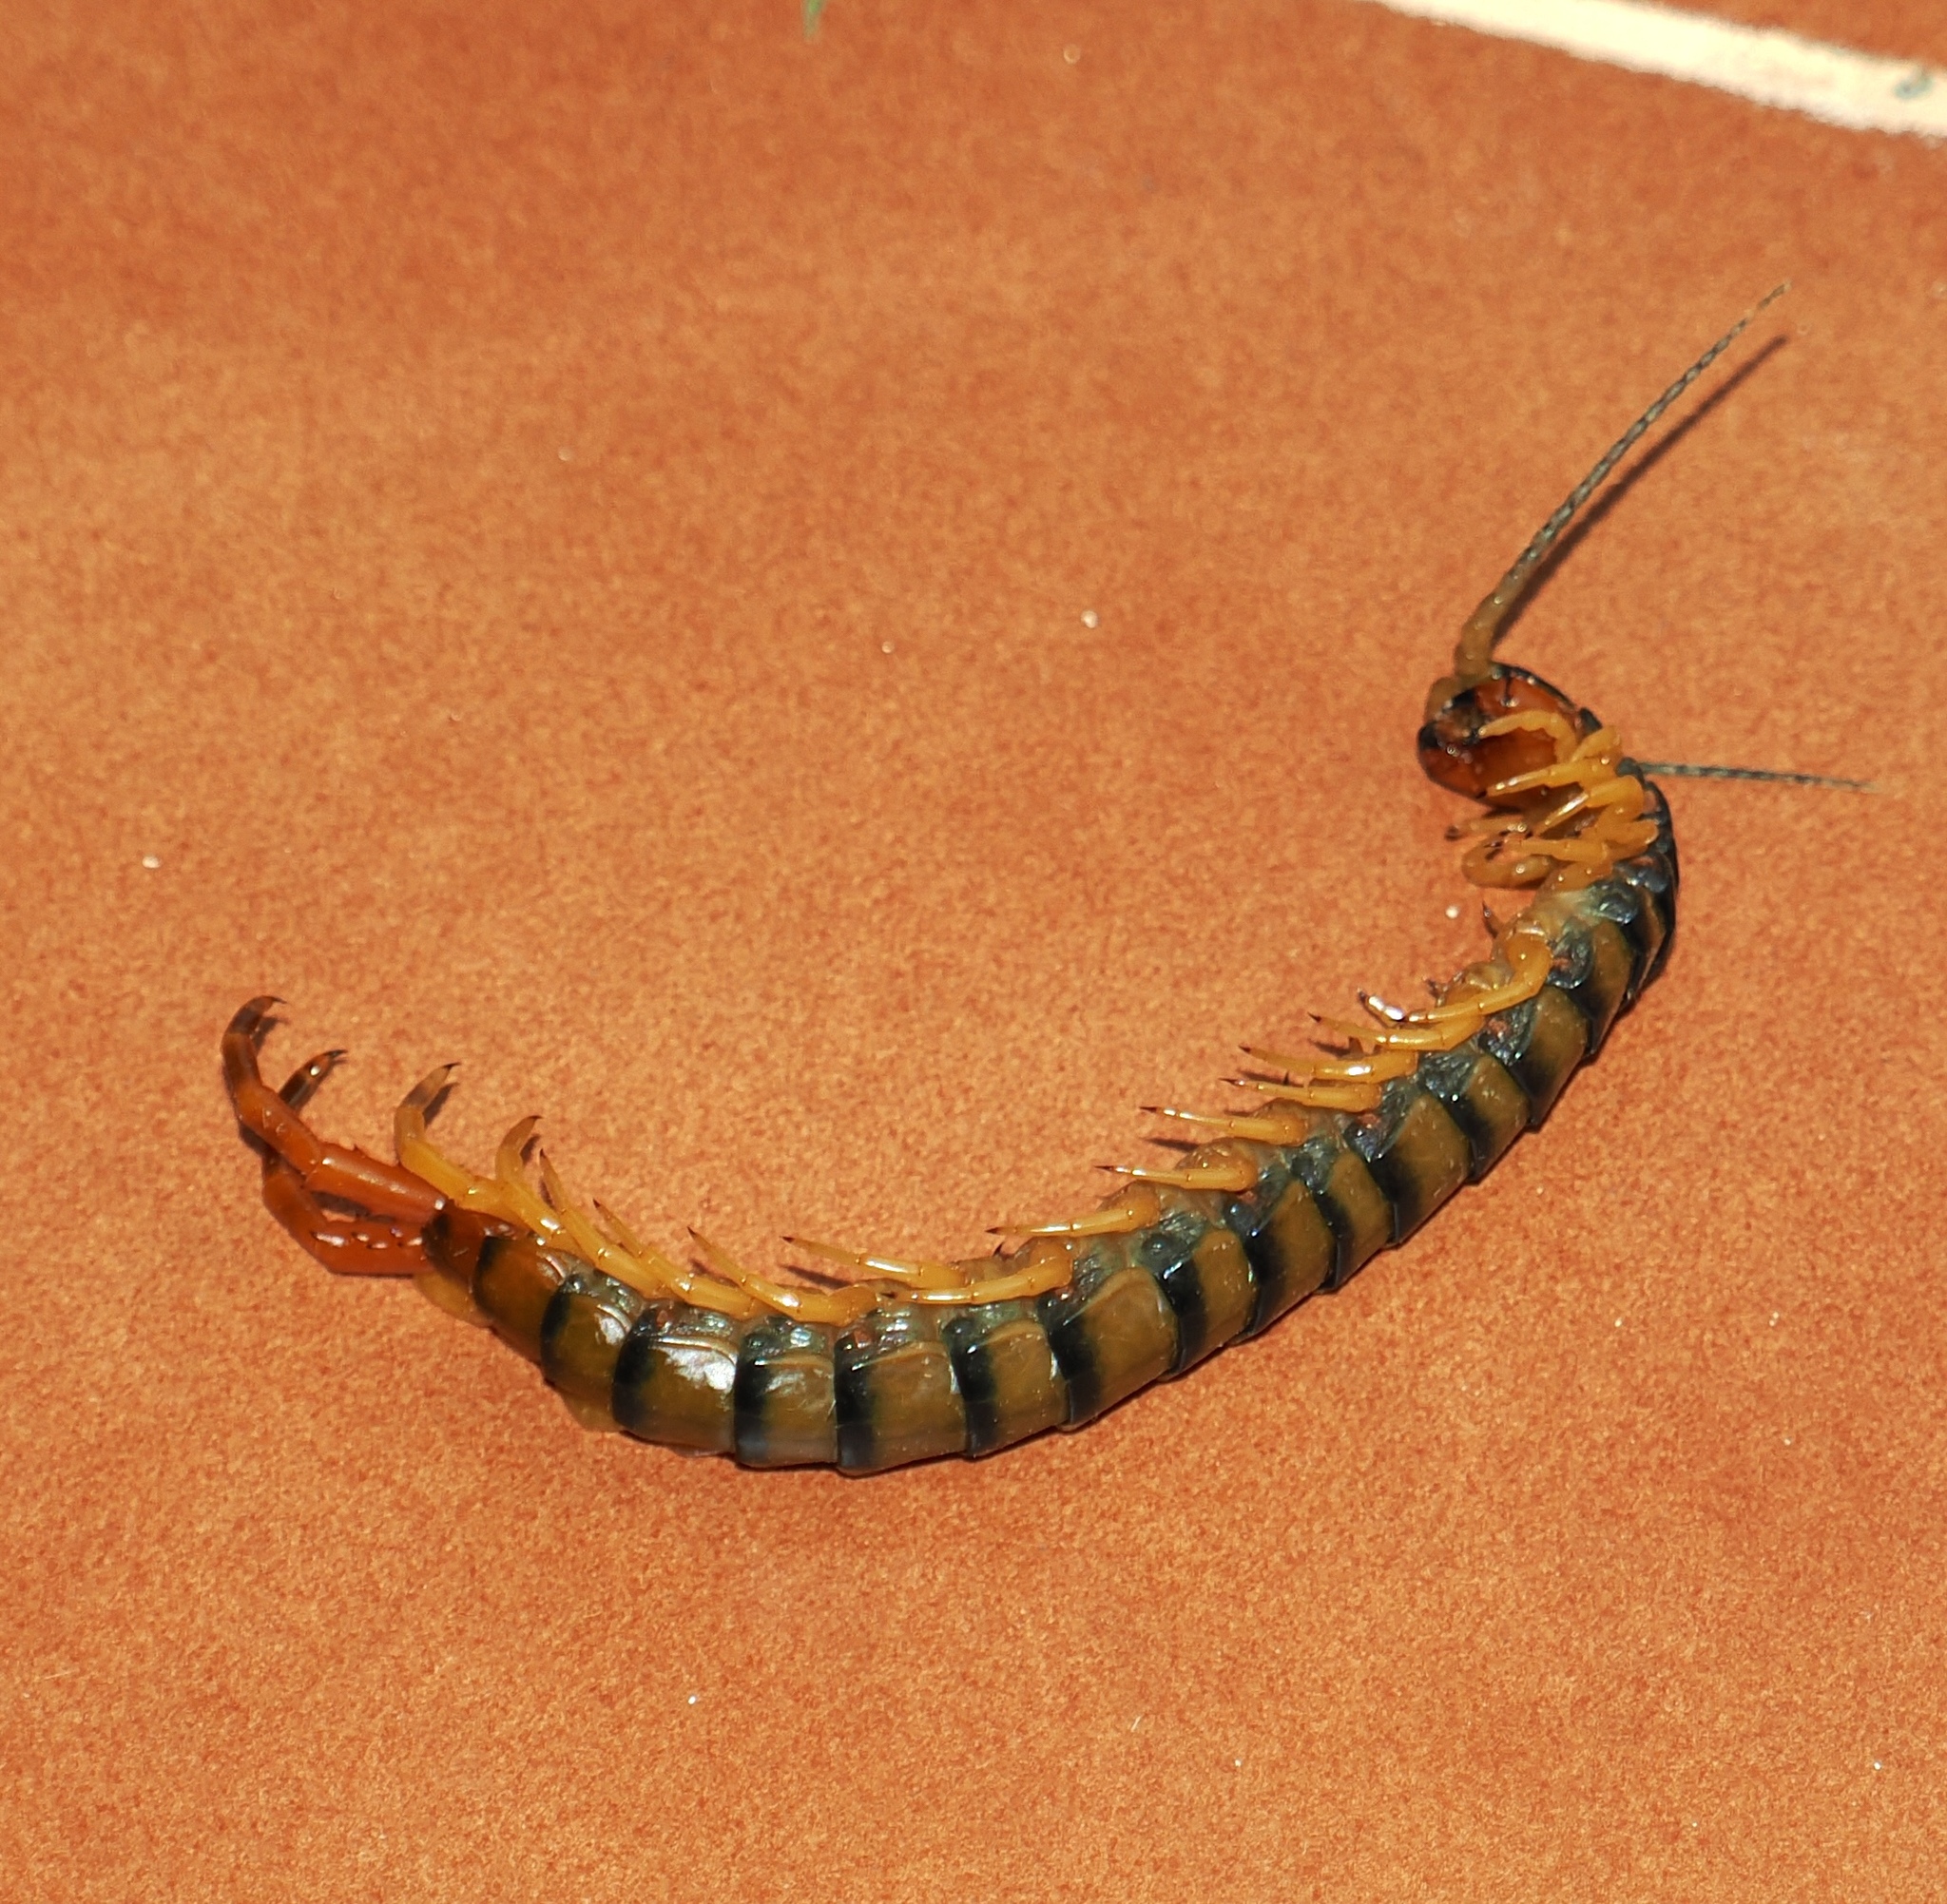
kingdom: Animalia
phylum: Arthropoda
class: Chilopoda
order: Scolopendromorpha
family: Scolopendridae
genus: Ethmostigmus
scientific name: Ethmostigmus trigonopodus
